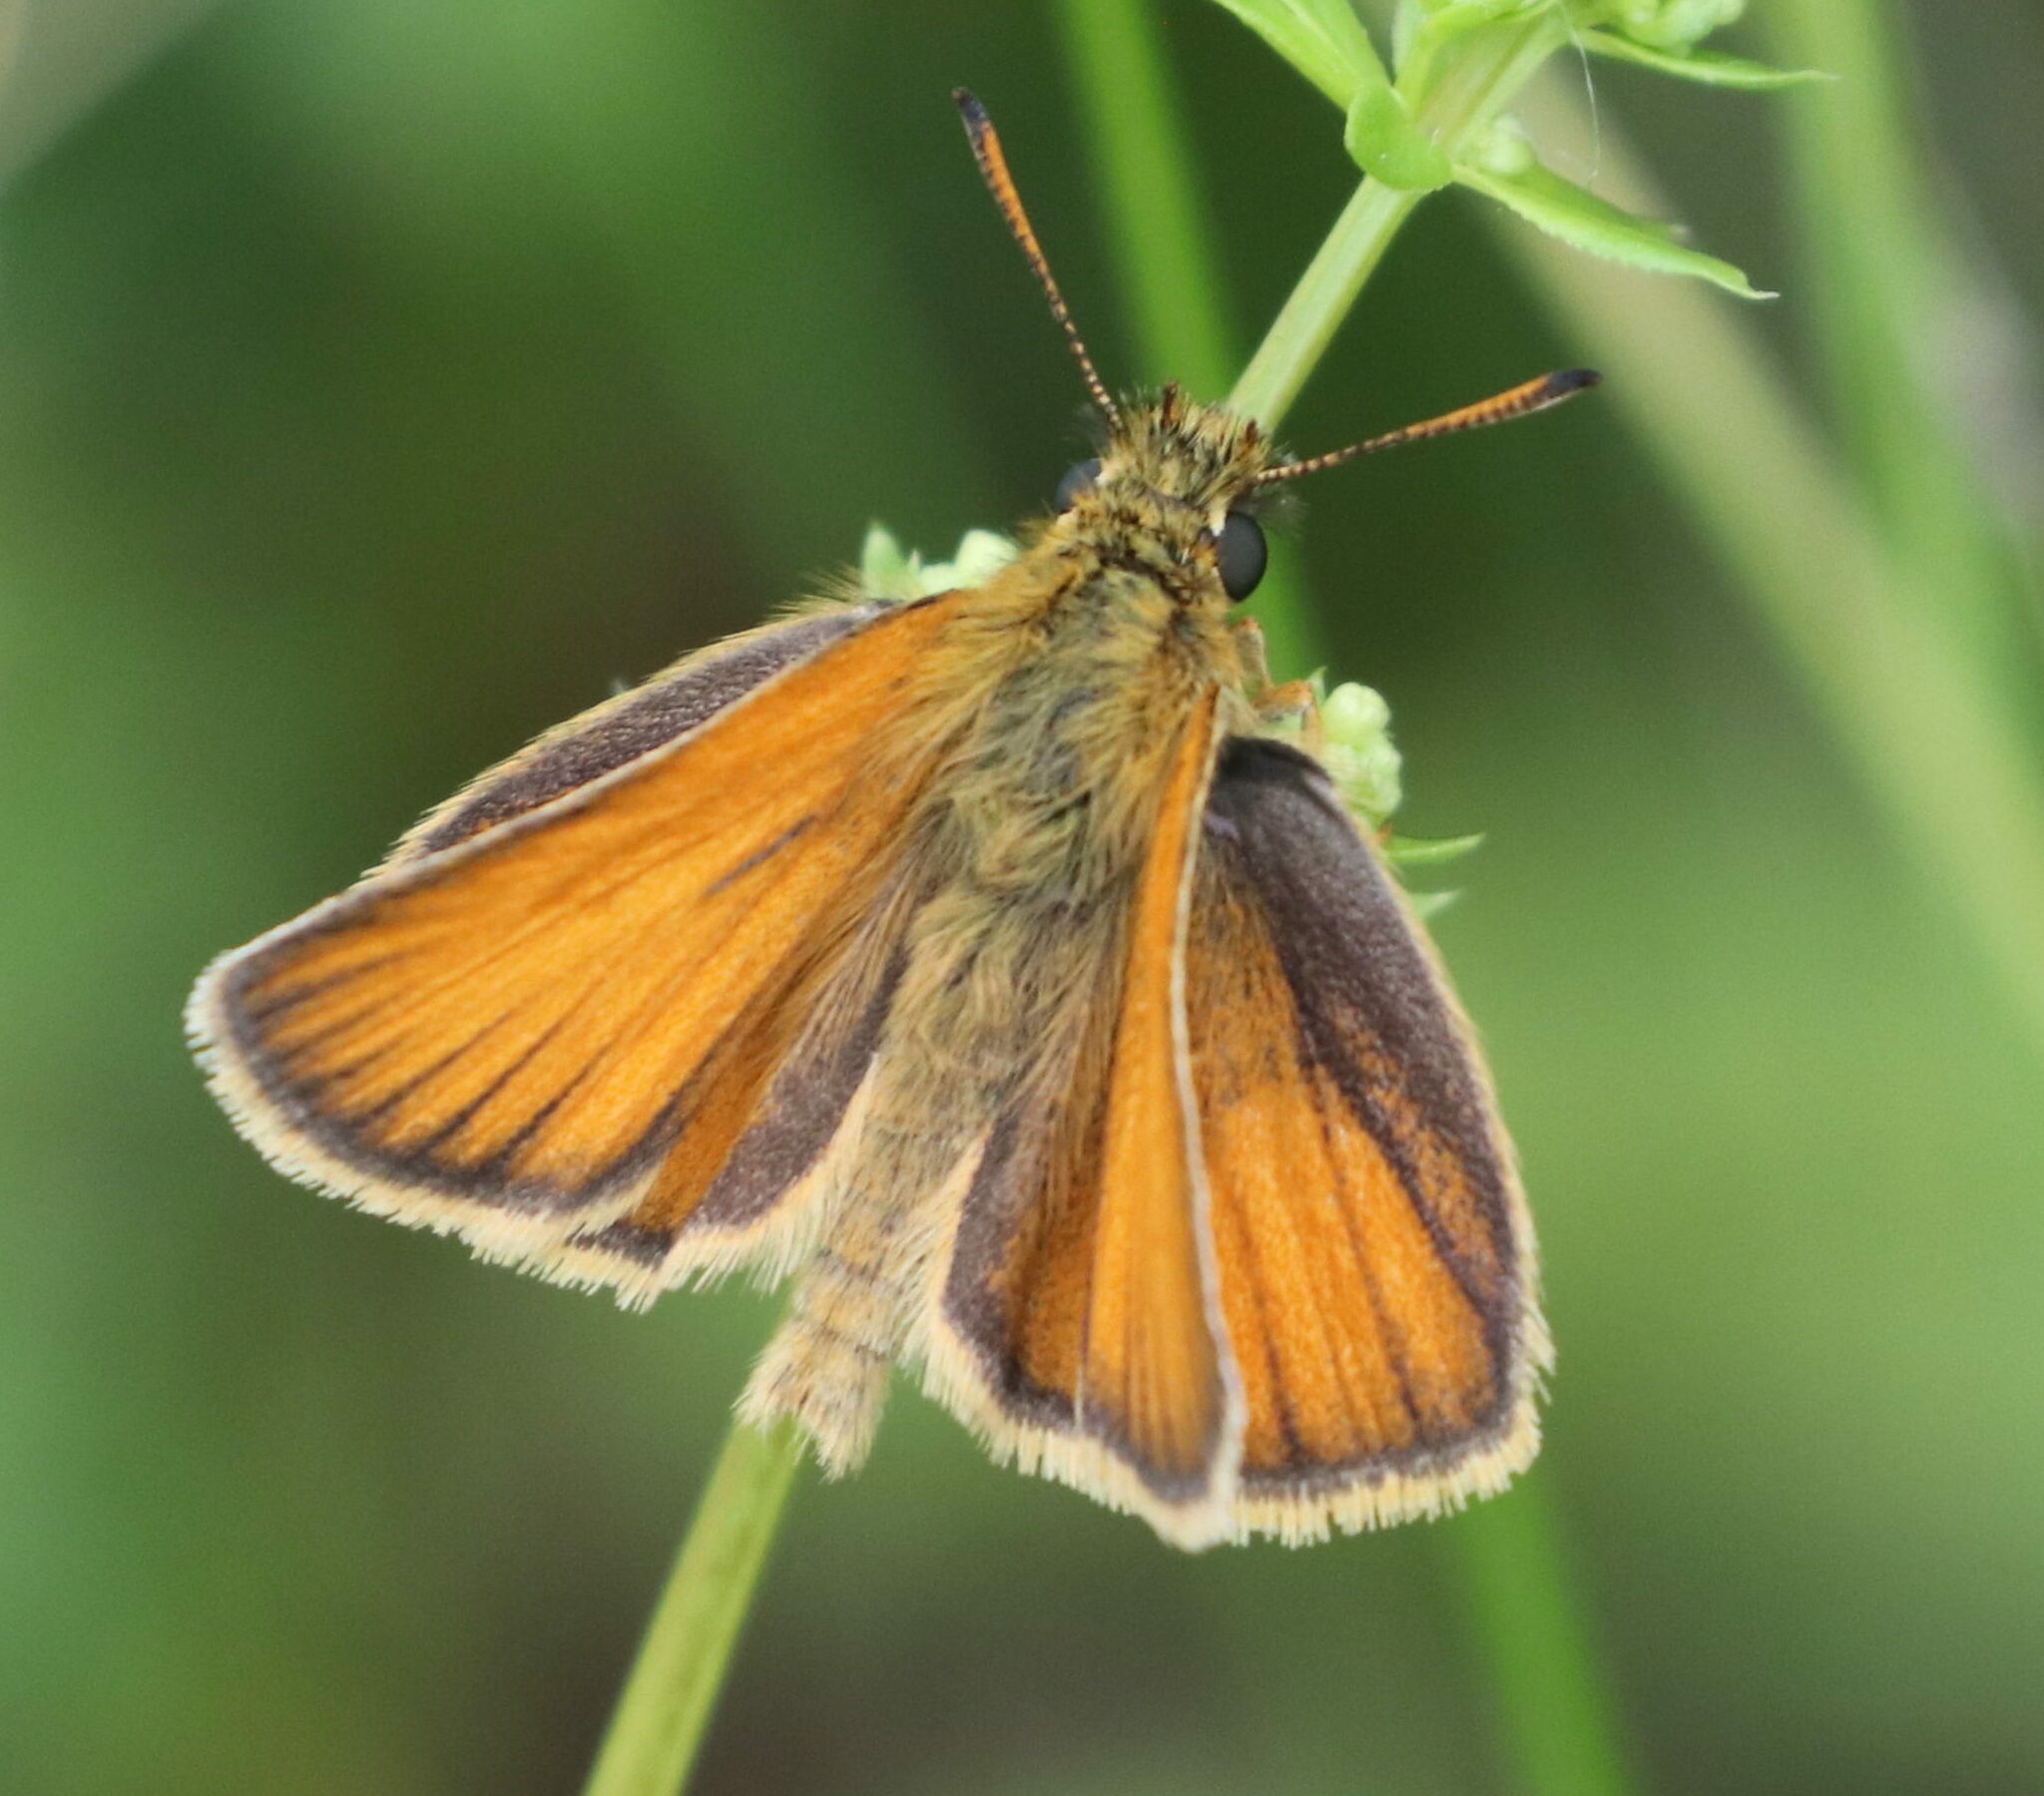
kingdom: Animalia
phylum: Arthropoda
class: Insecta
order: Lepidoptera
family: Hesperiidae
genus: Thymelicus
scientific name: Thymelicus lineola
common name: Essex skipper
